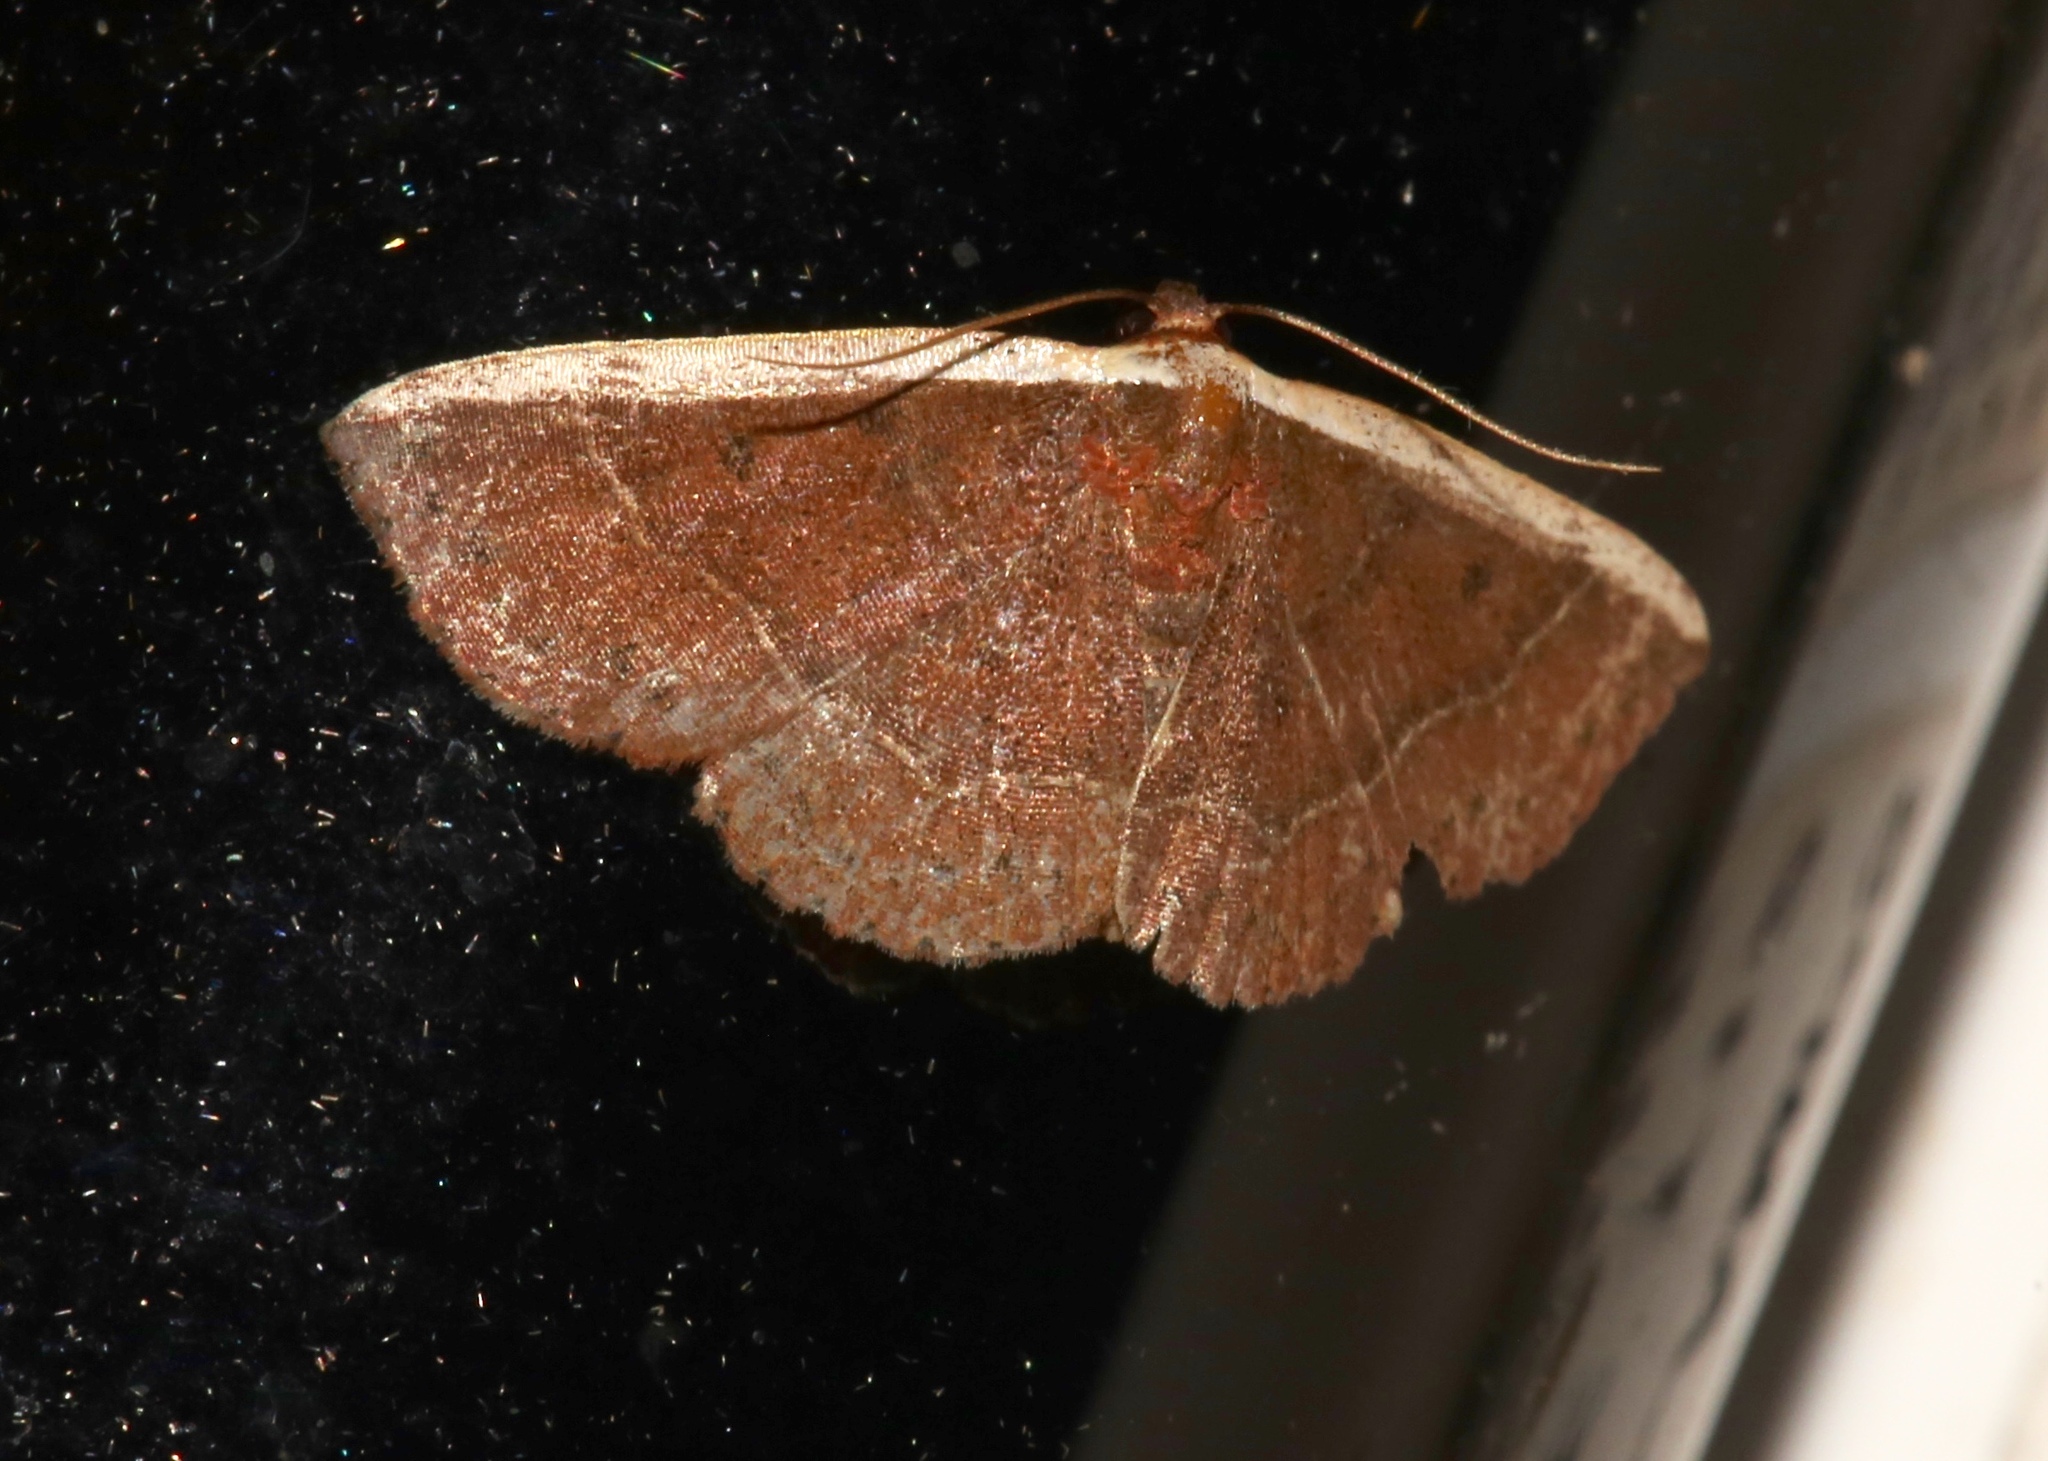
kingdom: Animalia
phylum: Arthropoda
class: Insecta
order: Lepidoptera
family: Noctuidae
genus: Ozarba
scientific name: Ozarba albocostaliata
